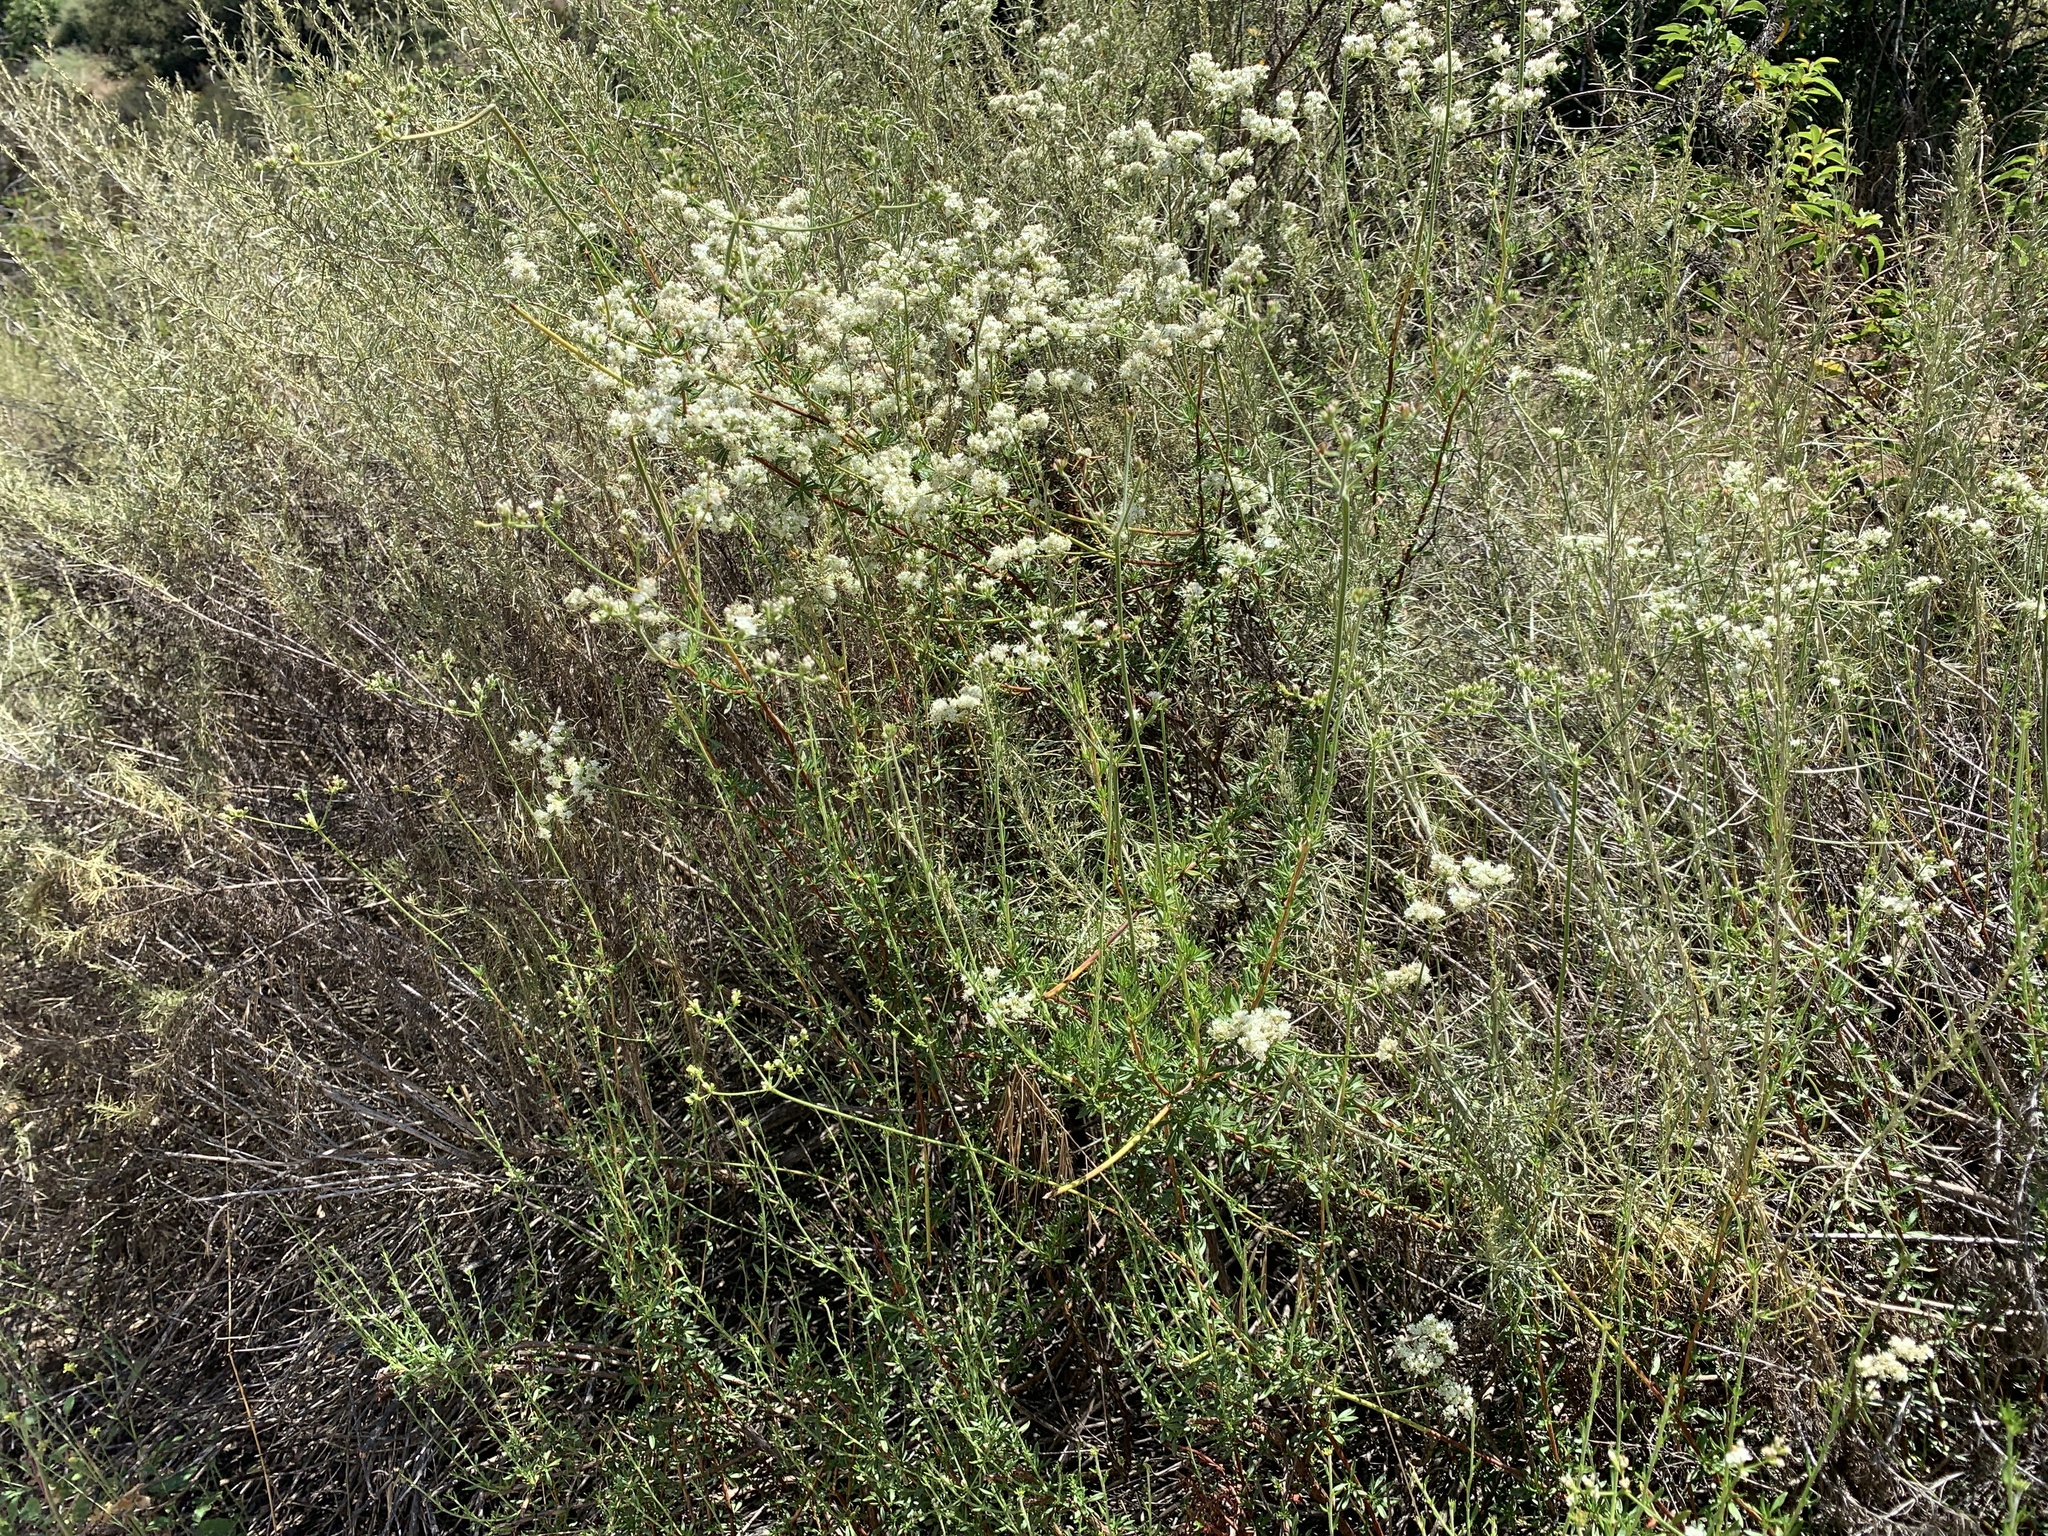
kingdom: Plantae
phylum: Tracheophyta
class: Magnoliopsida
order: Caryophyllales
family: Polygonaceae
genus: Eriogonum
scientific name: Eriogonum fasciculatum
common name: California wild buckwheat
